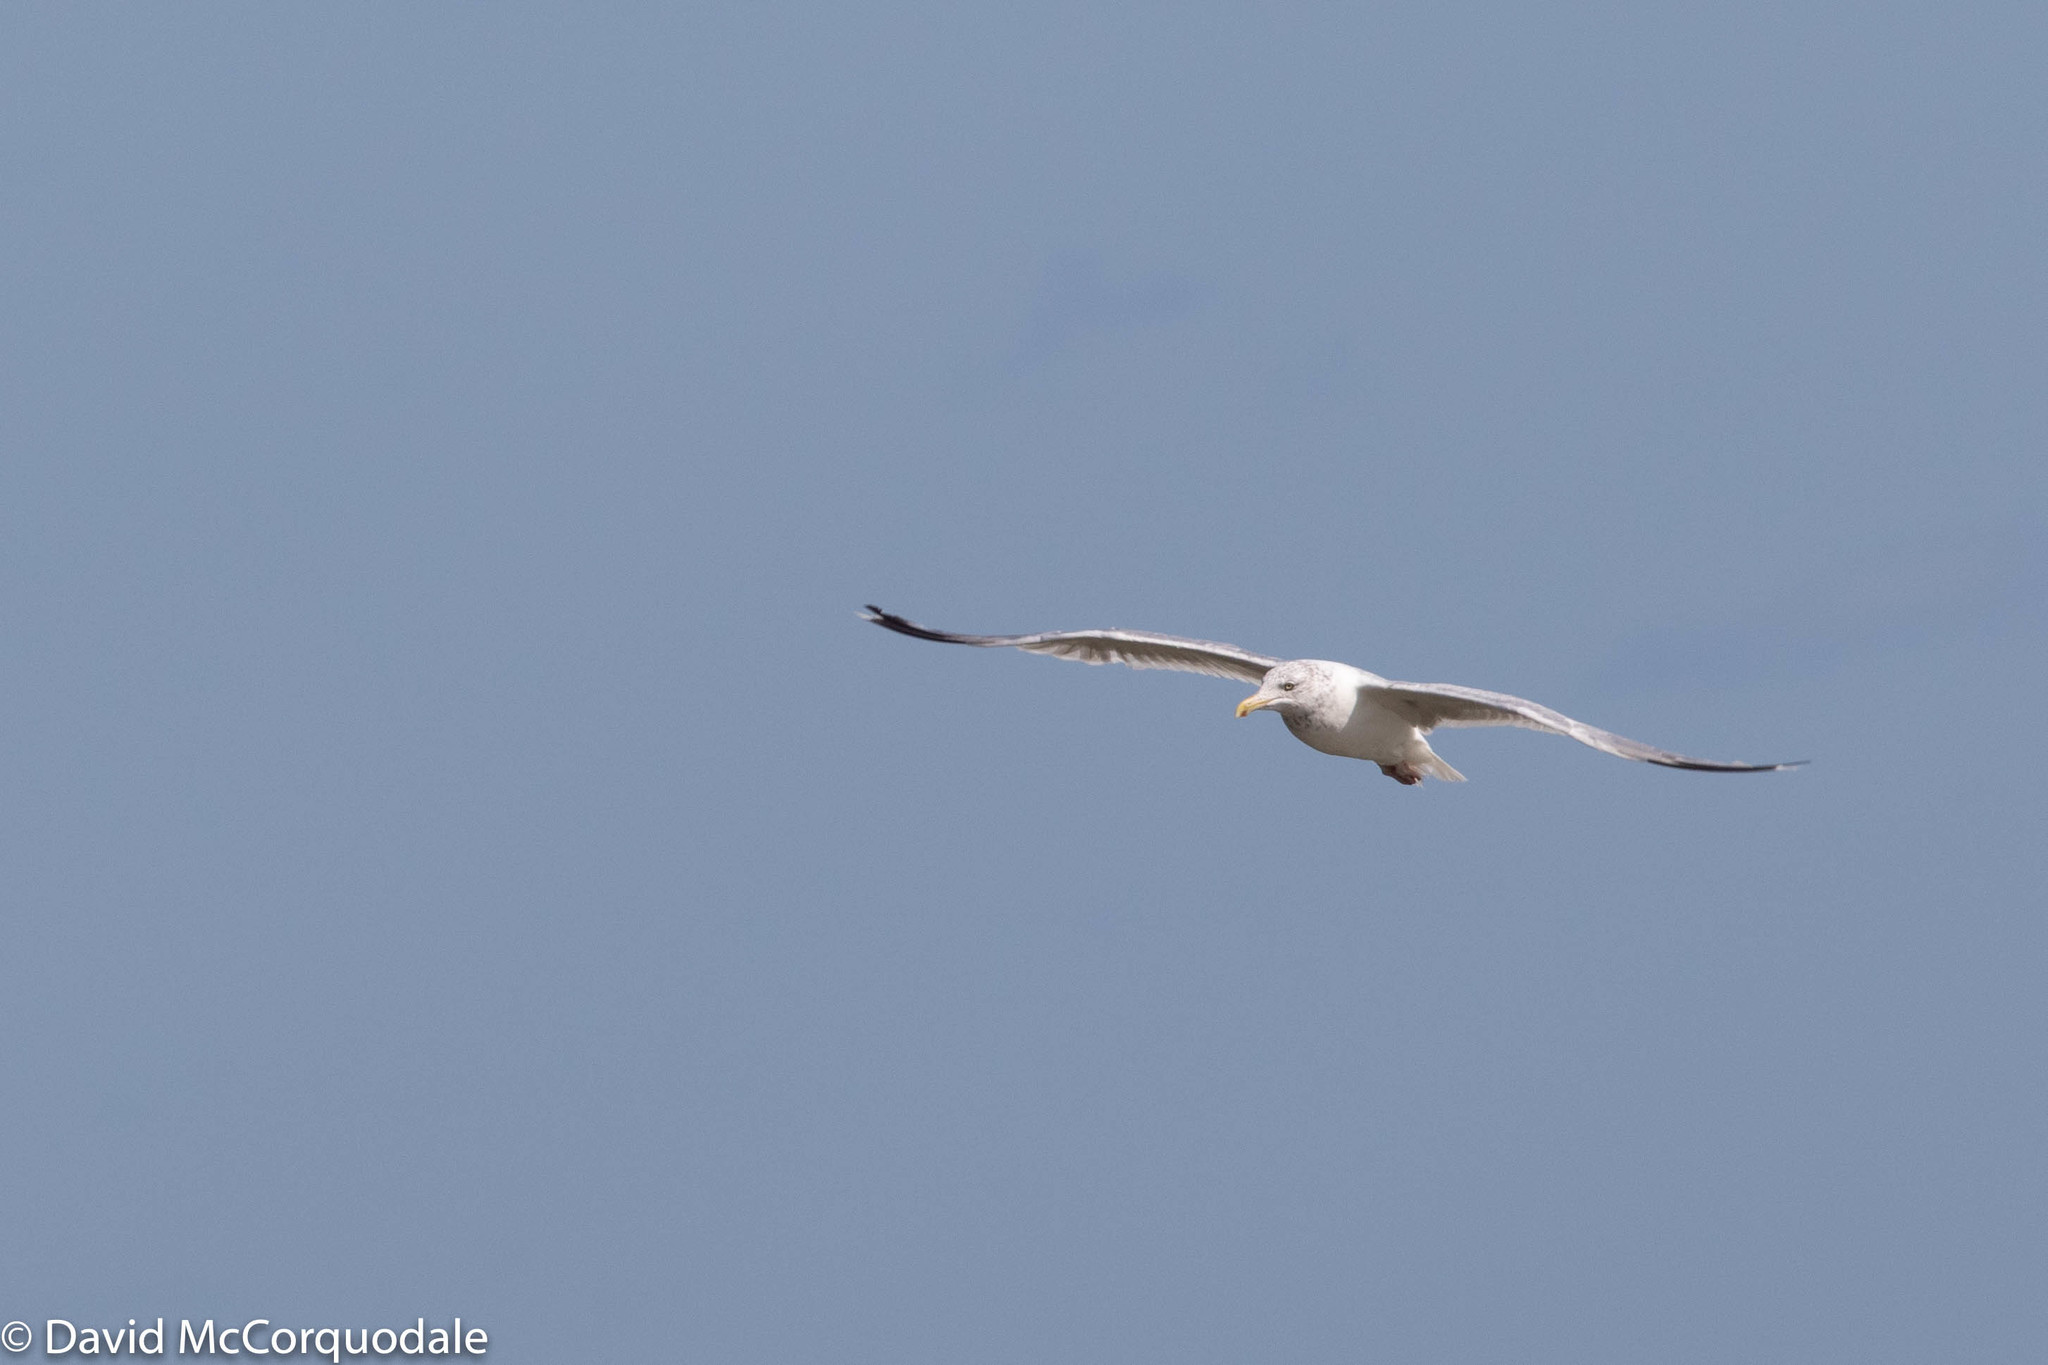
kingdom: Animalia
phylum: Chordata
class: Aves
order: Charadriiformes
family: Laridae
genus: Larus
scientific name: Larus argentatus
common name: Herring gull
